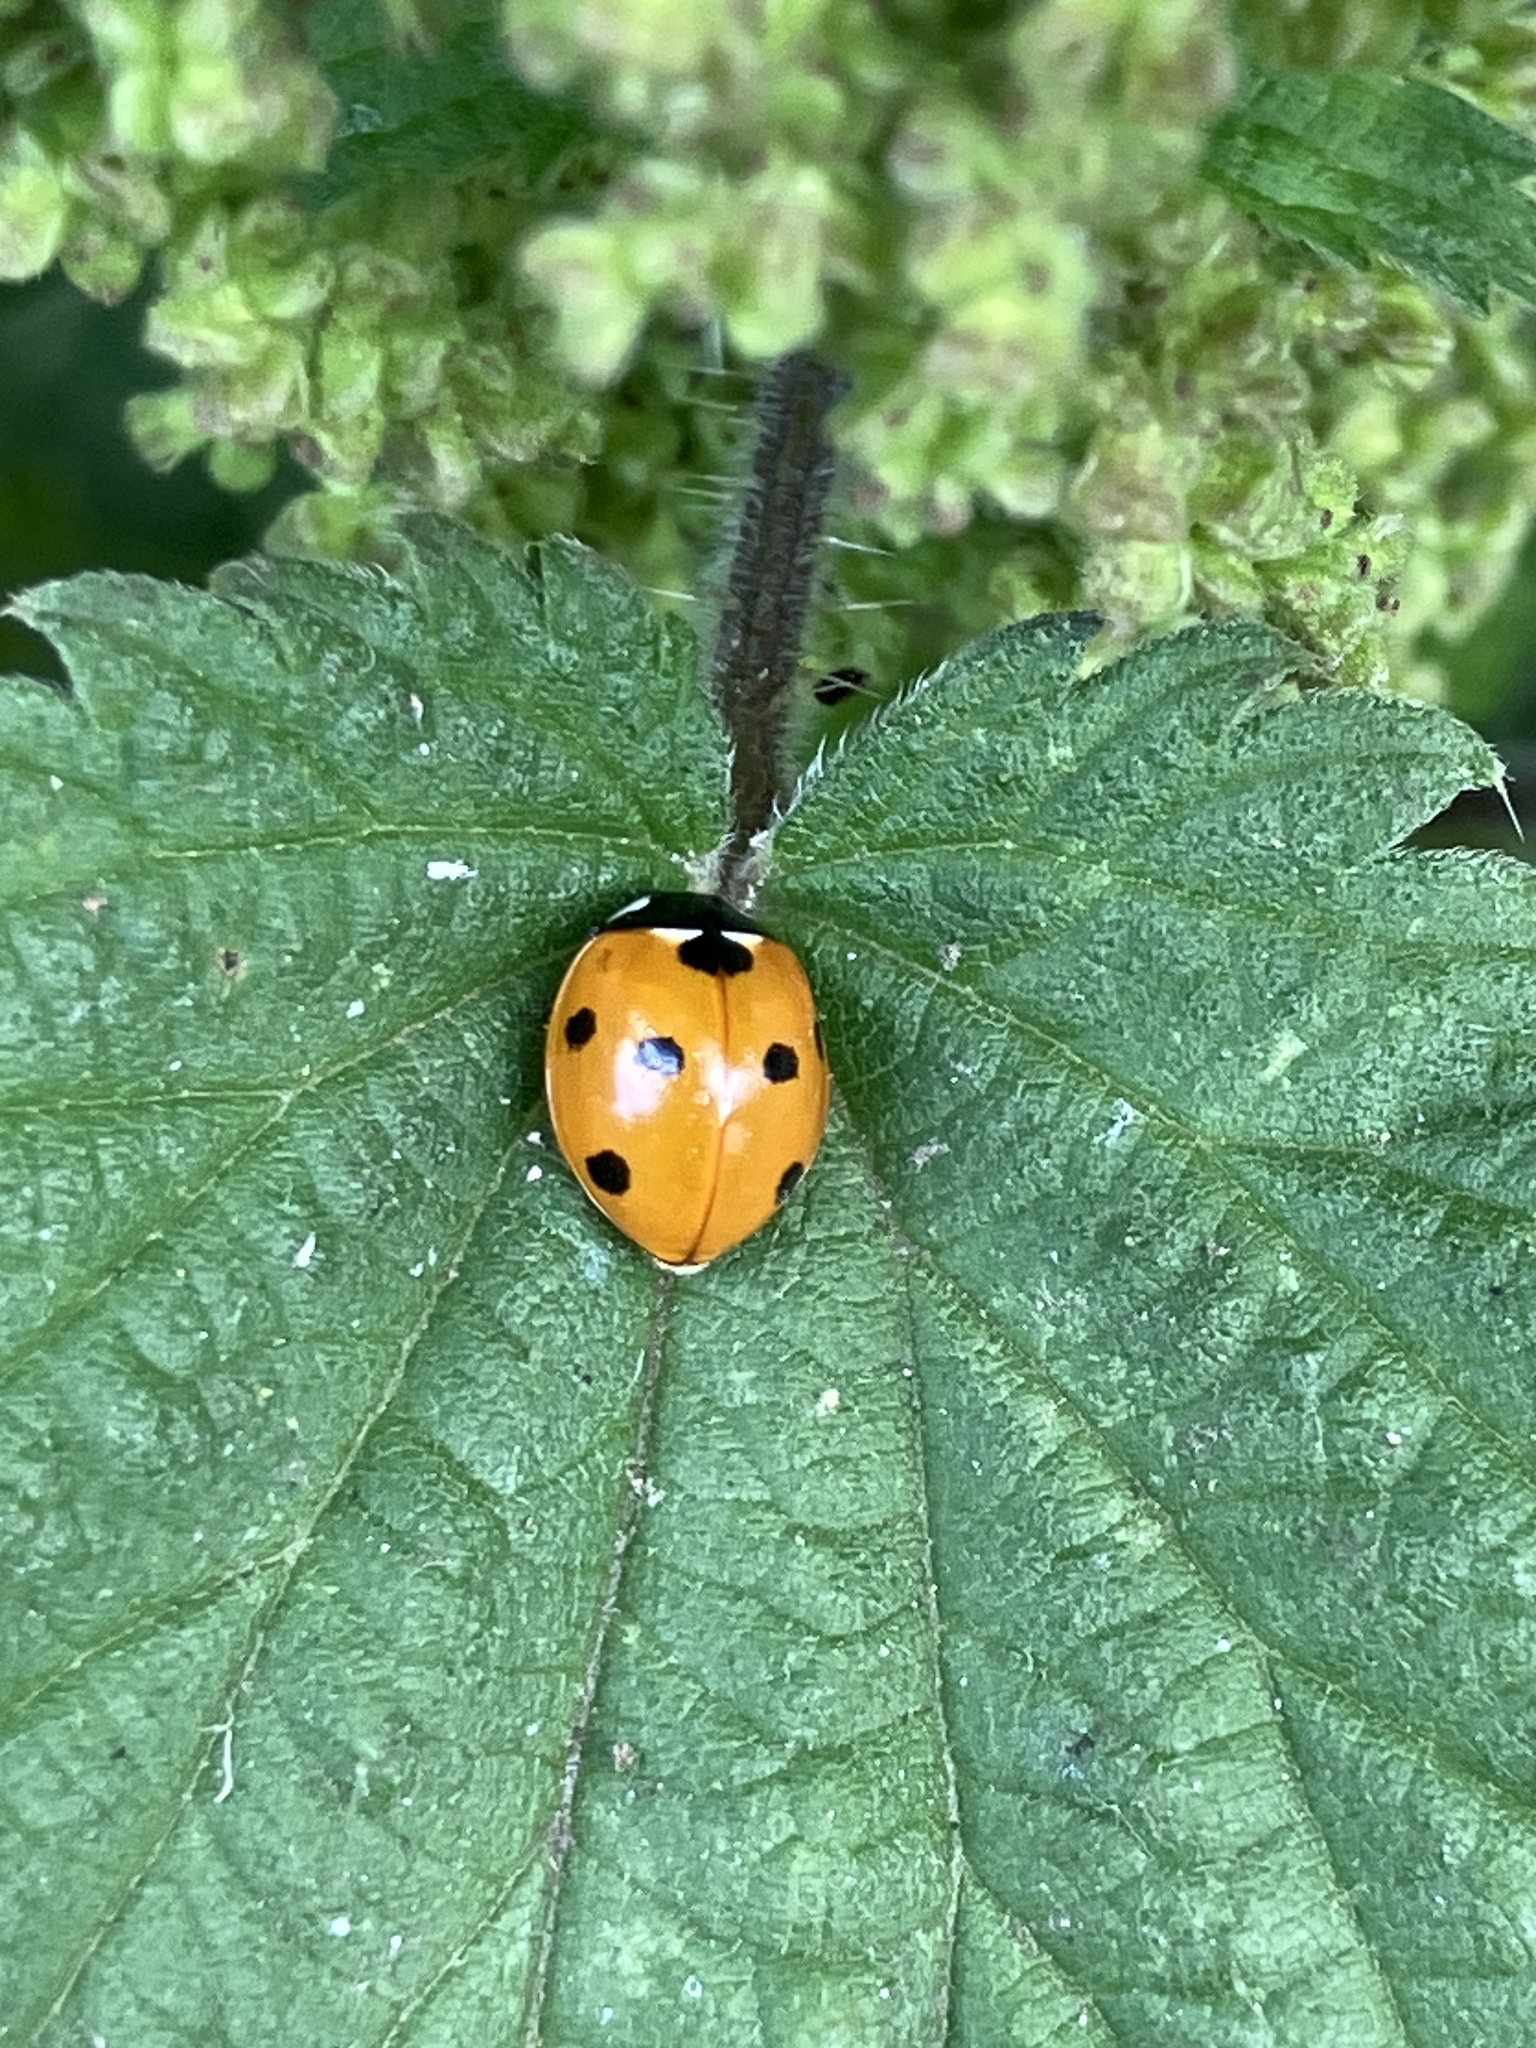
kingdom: Animalia
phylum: Arthropoda
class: Insecta
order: Coleoptera
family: Coccinellidae
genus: Coccinella
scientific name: Coccinella septempunctata
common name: Sevenspotted lady beetle
